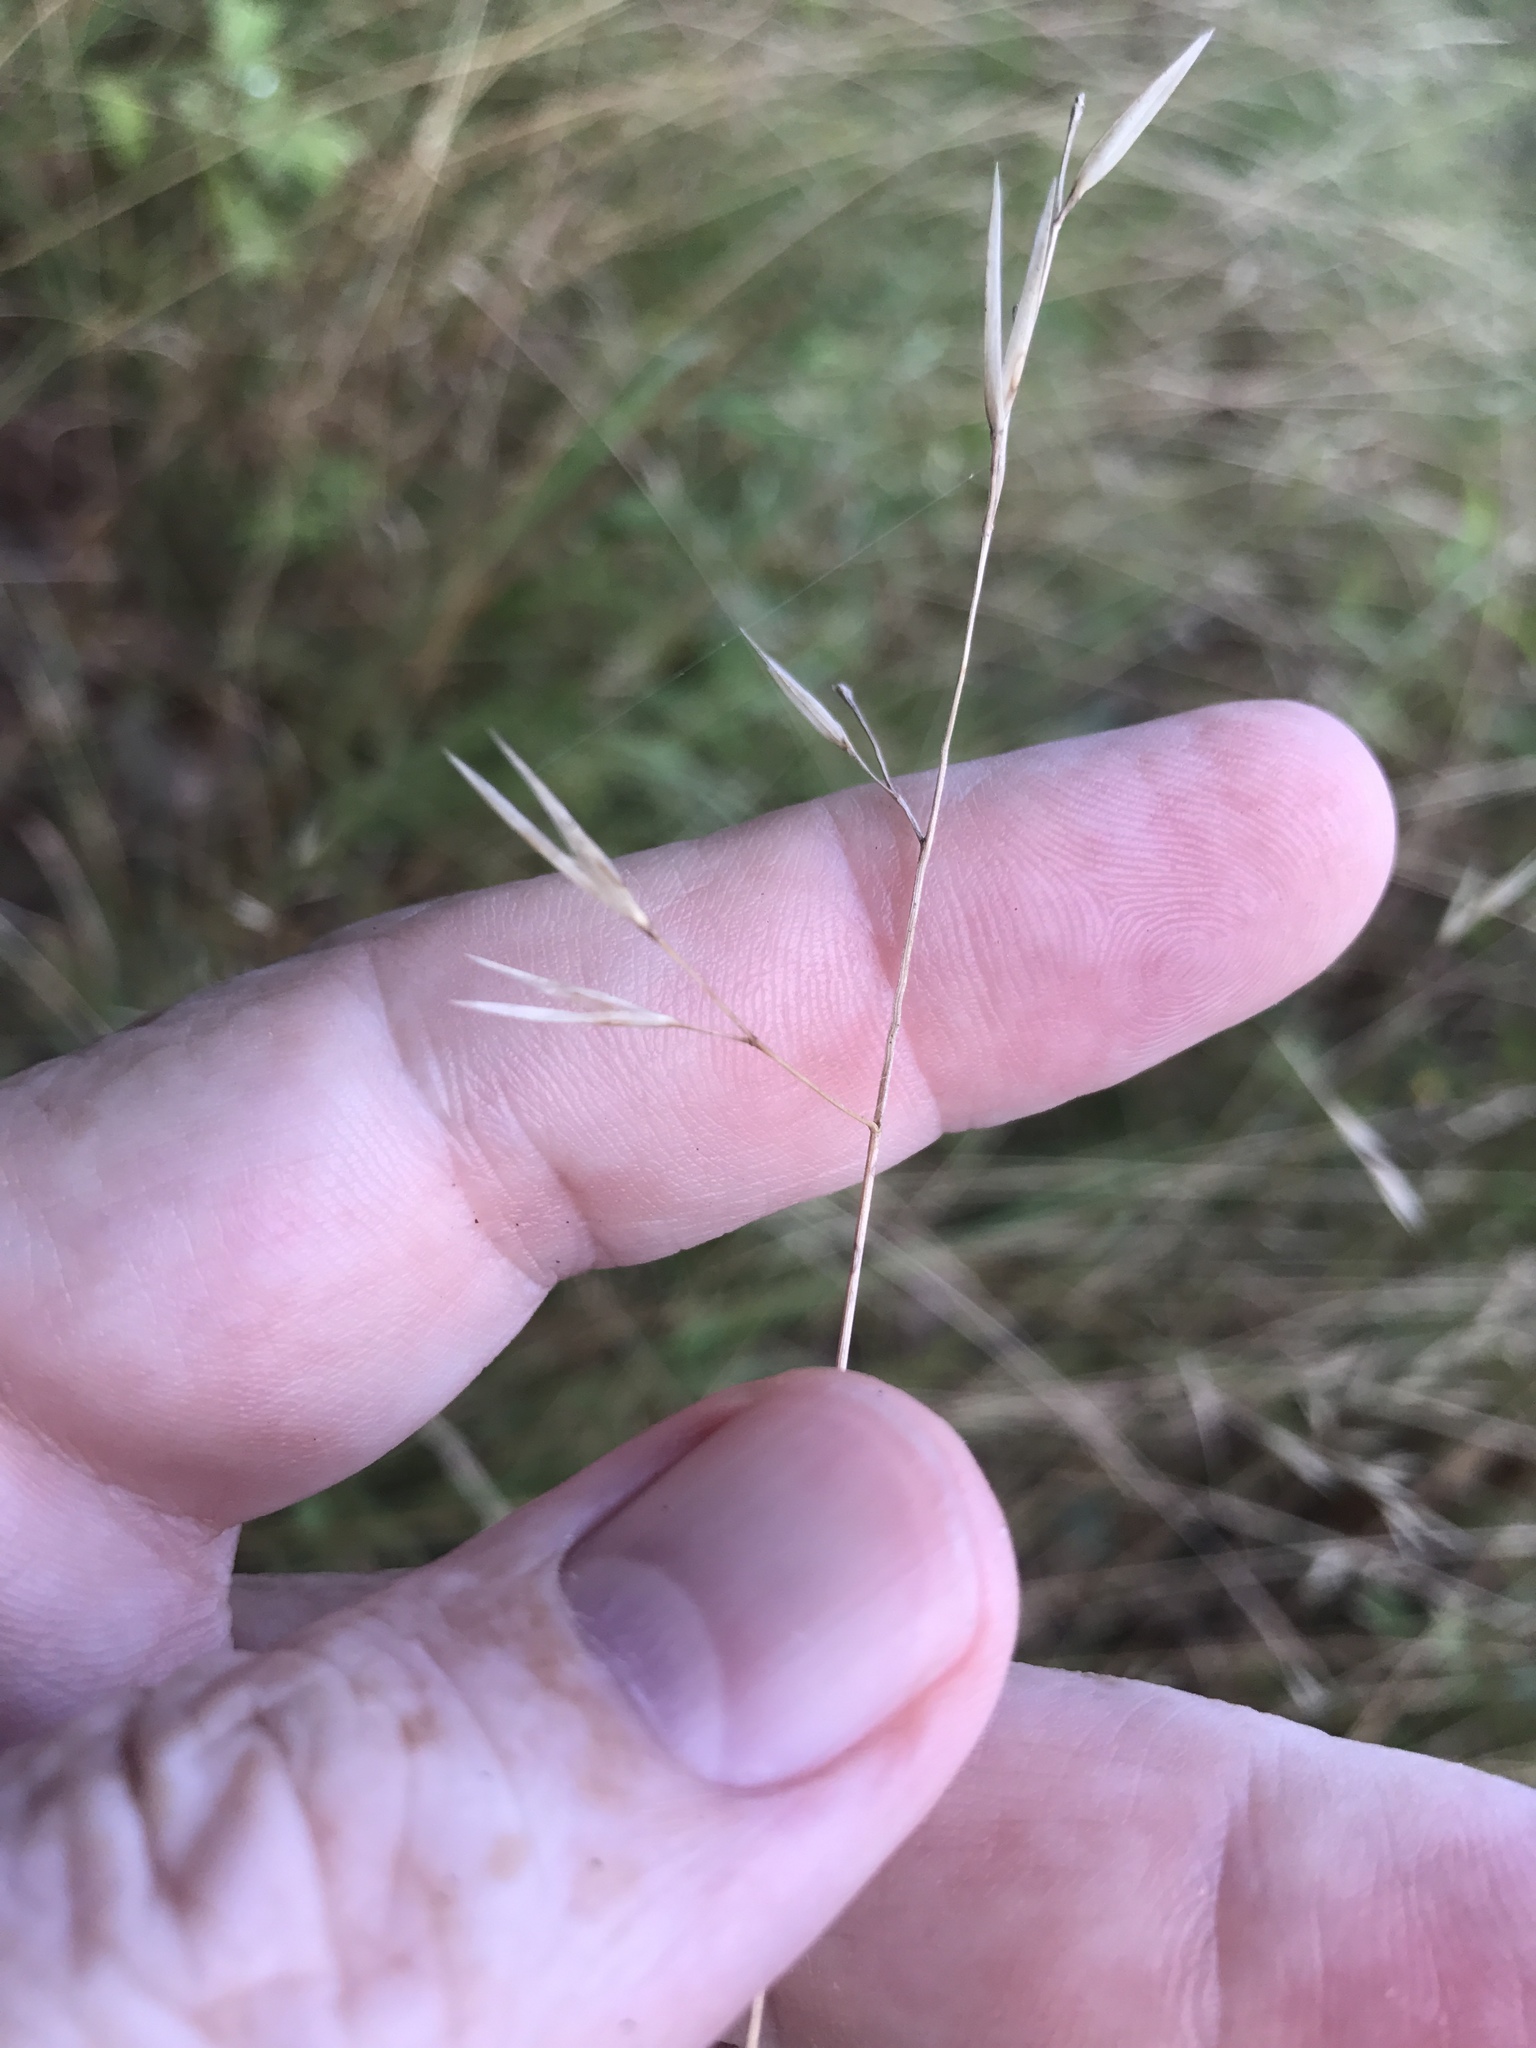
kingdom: Plantae
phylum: Tracheophyta
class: Liliopsida
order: Poales
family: Poaceae
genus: Danthonia
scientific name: Danthonia spicata
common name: Common wild oatgrass
